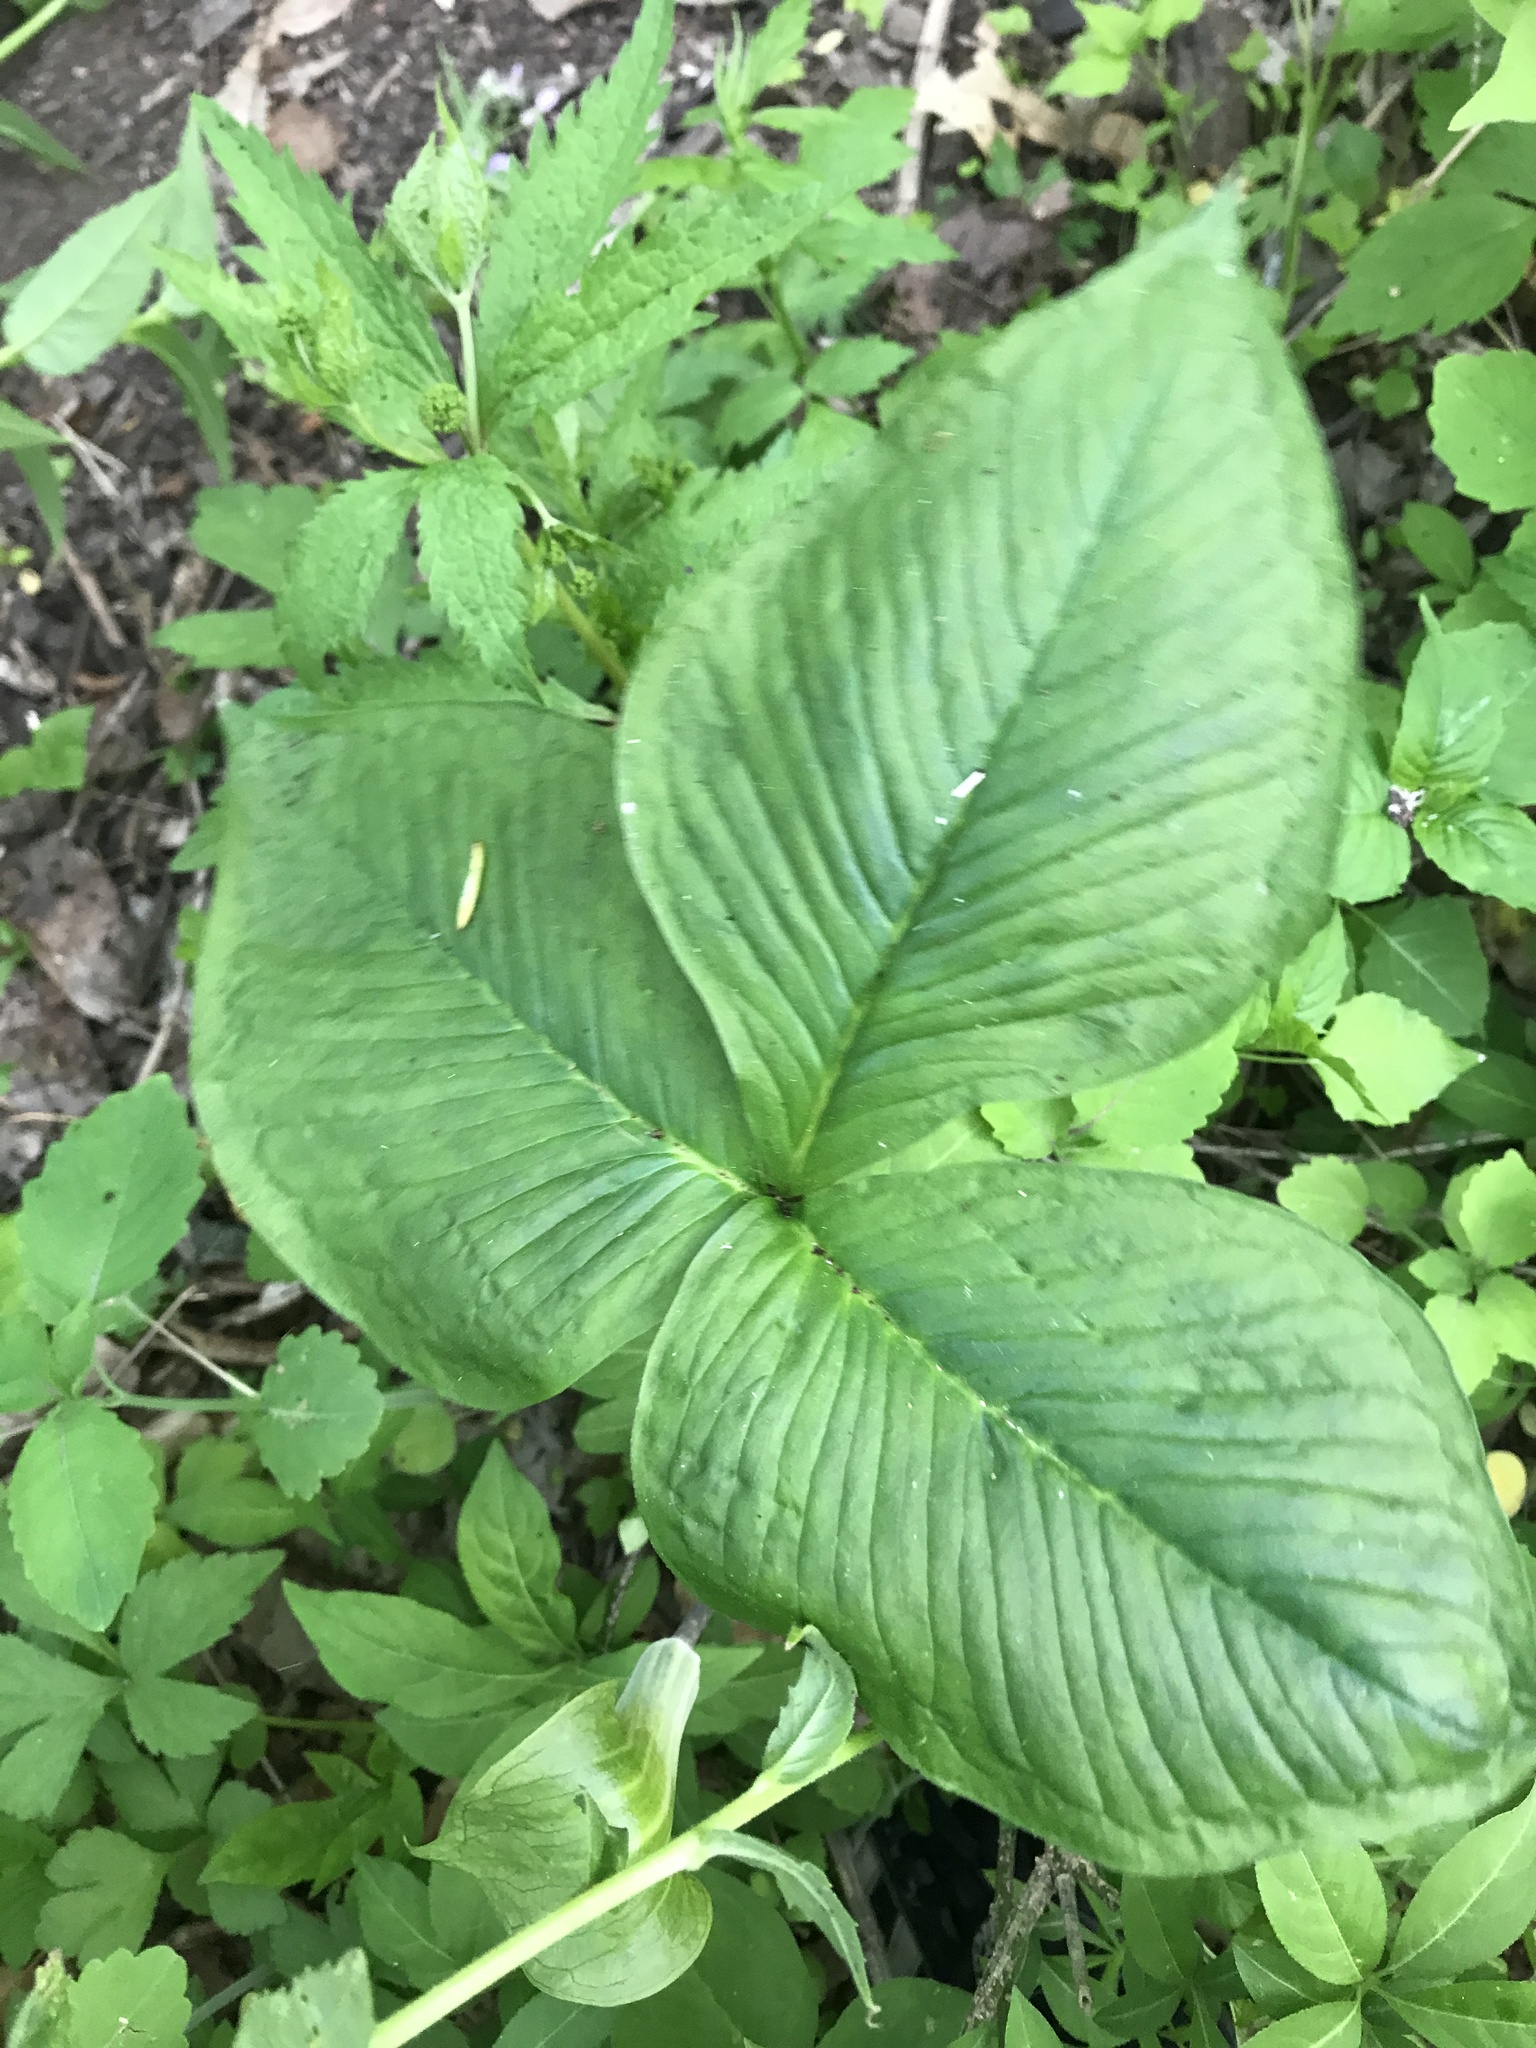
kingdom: Plantae
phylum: Tracheophyta
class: Liliopsida
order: Alismatales
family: Araceae
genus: Arisaema
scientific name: Arisaema triphyllum
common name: Jack-in-the-pulpit
